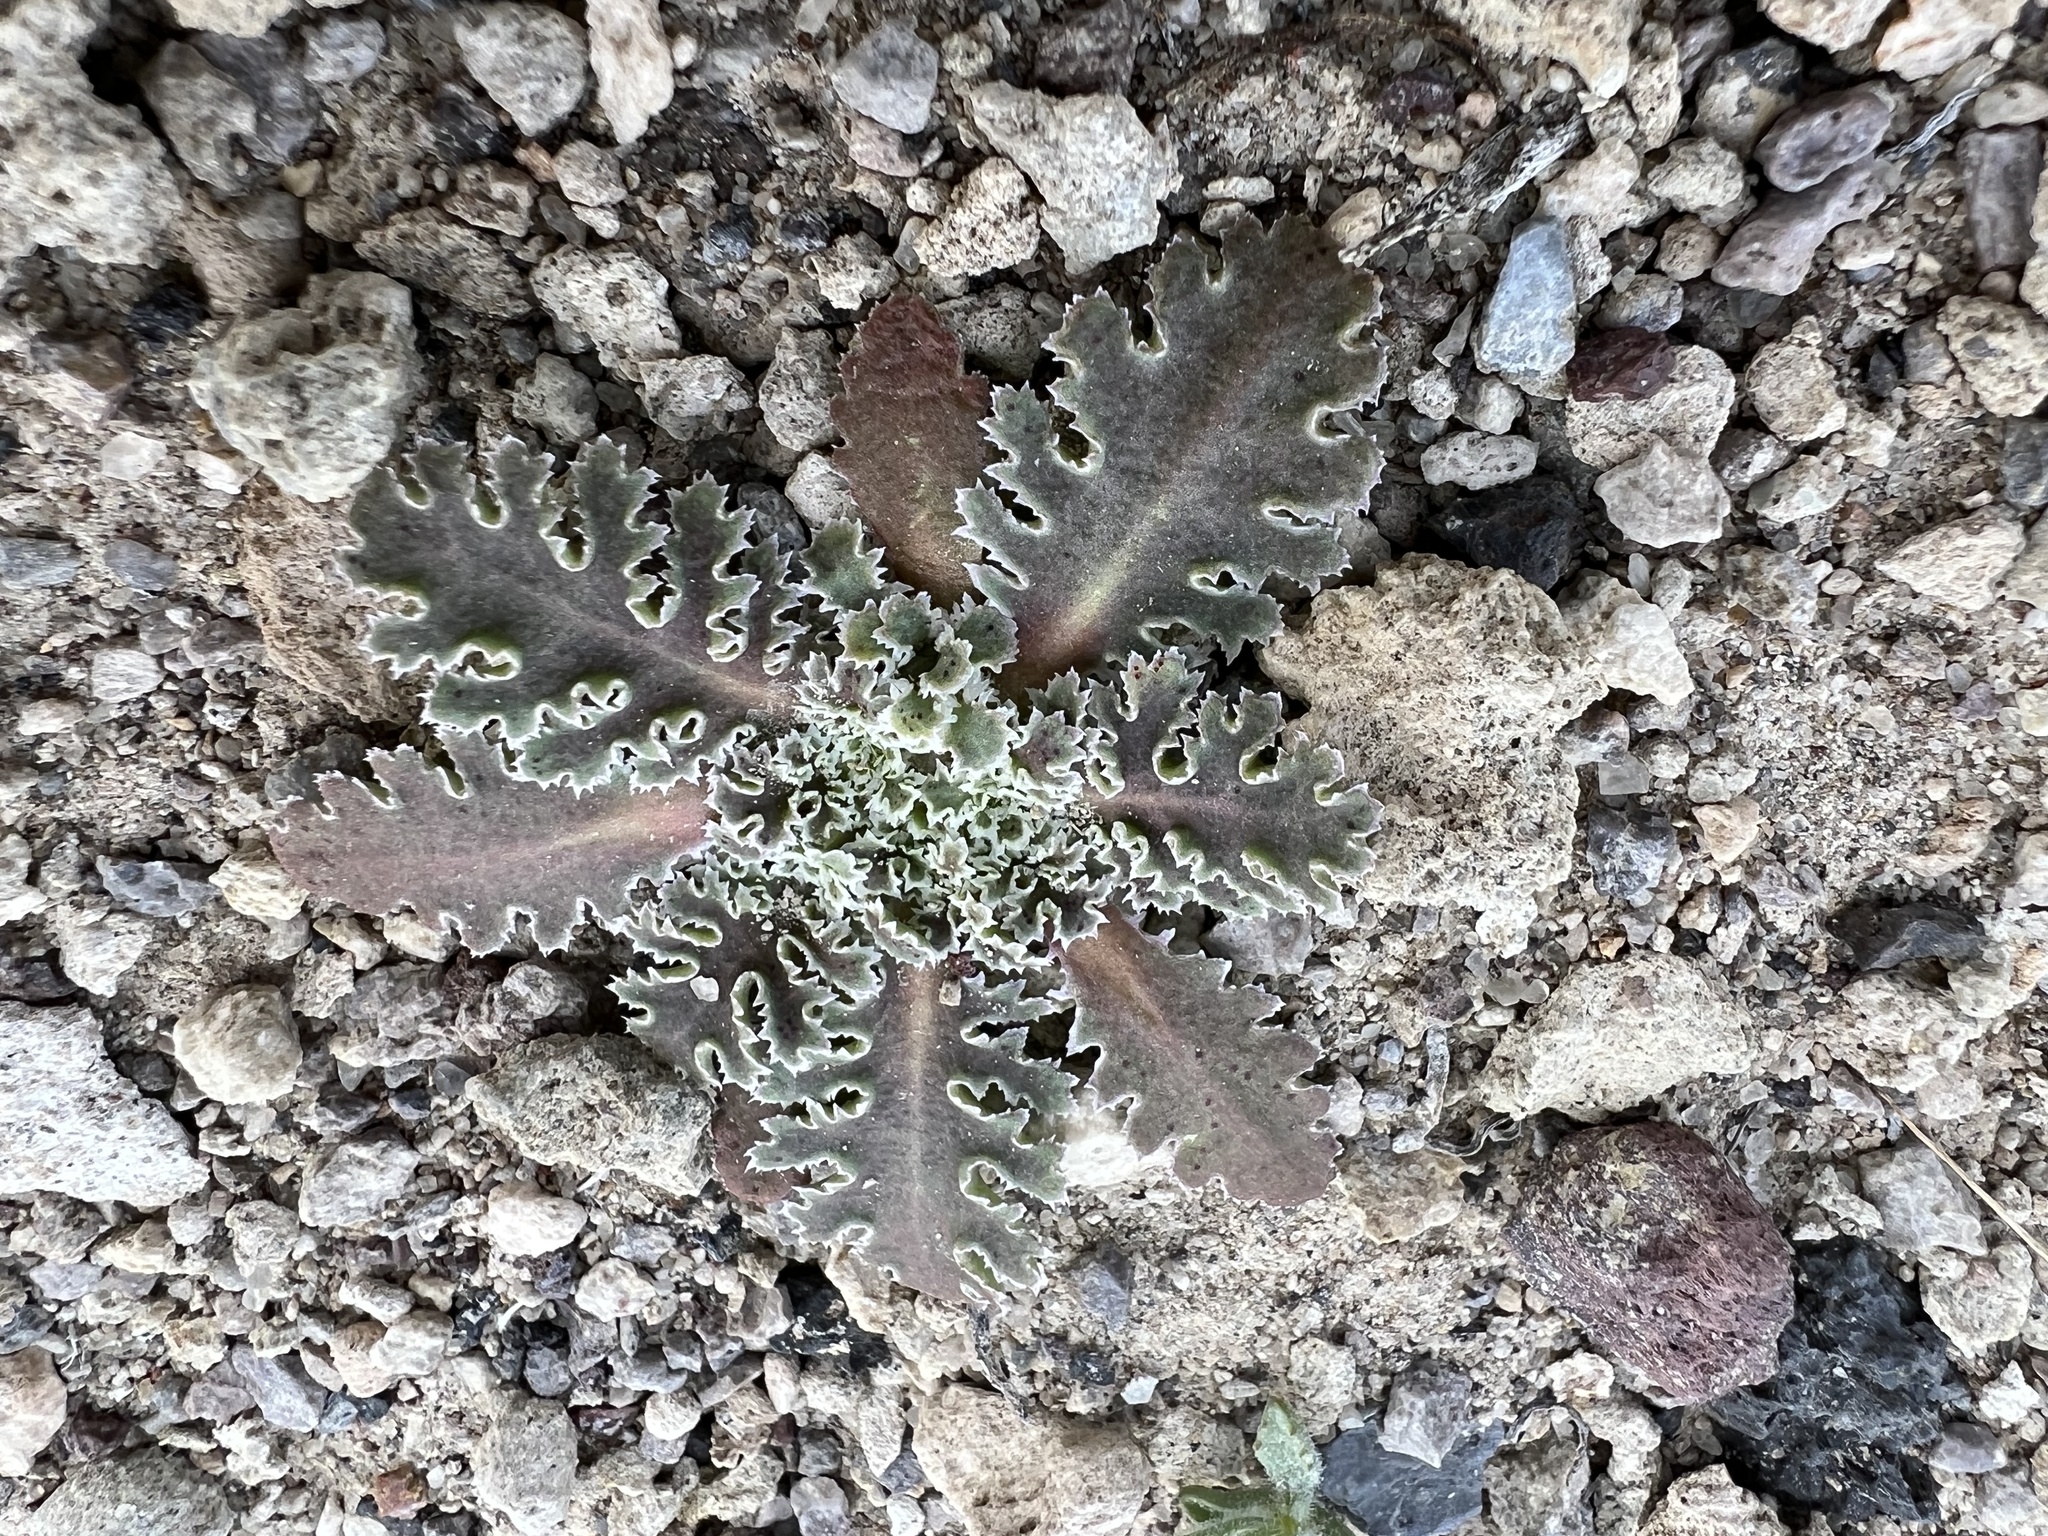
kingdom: Plantae
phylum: Tracheophyta
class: Magnoliopsida
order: Asterales
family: Asteraceae
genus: Glyptopleura
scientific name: Glyptopleura marginata
